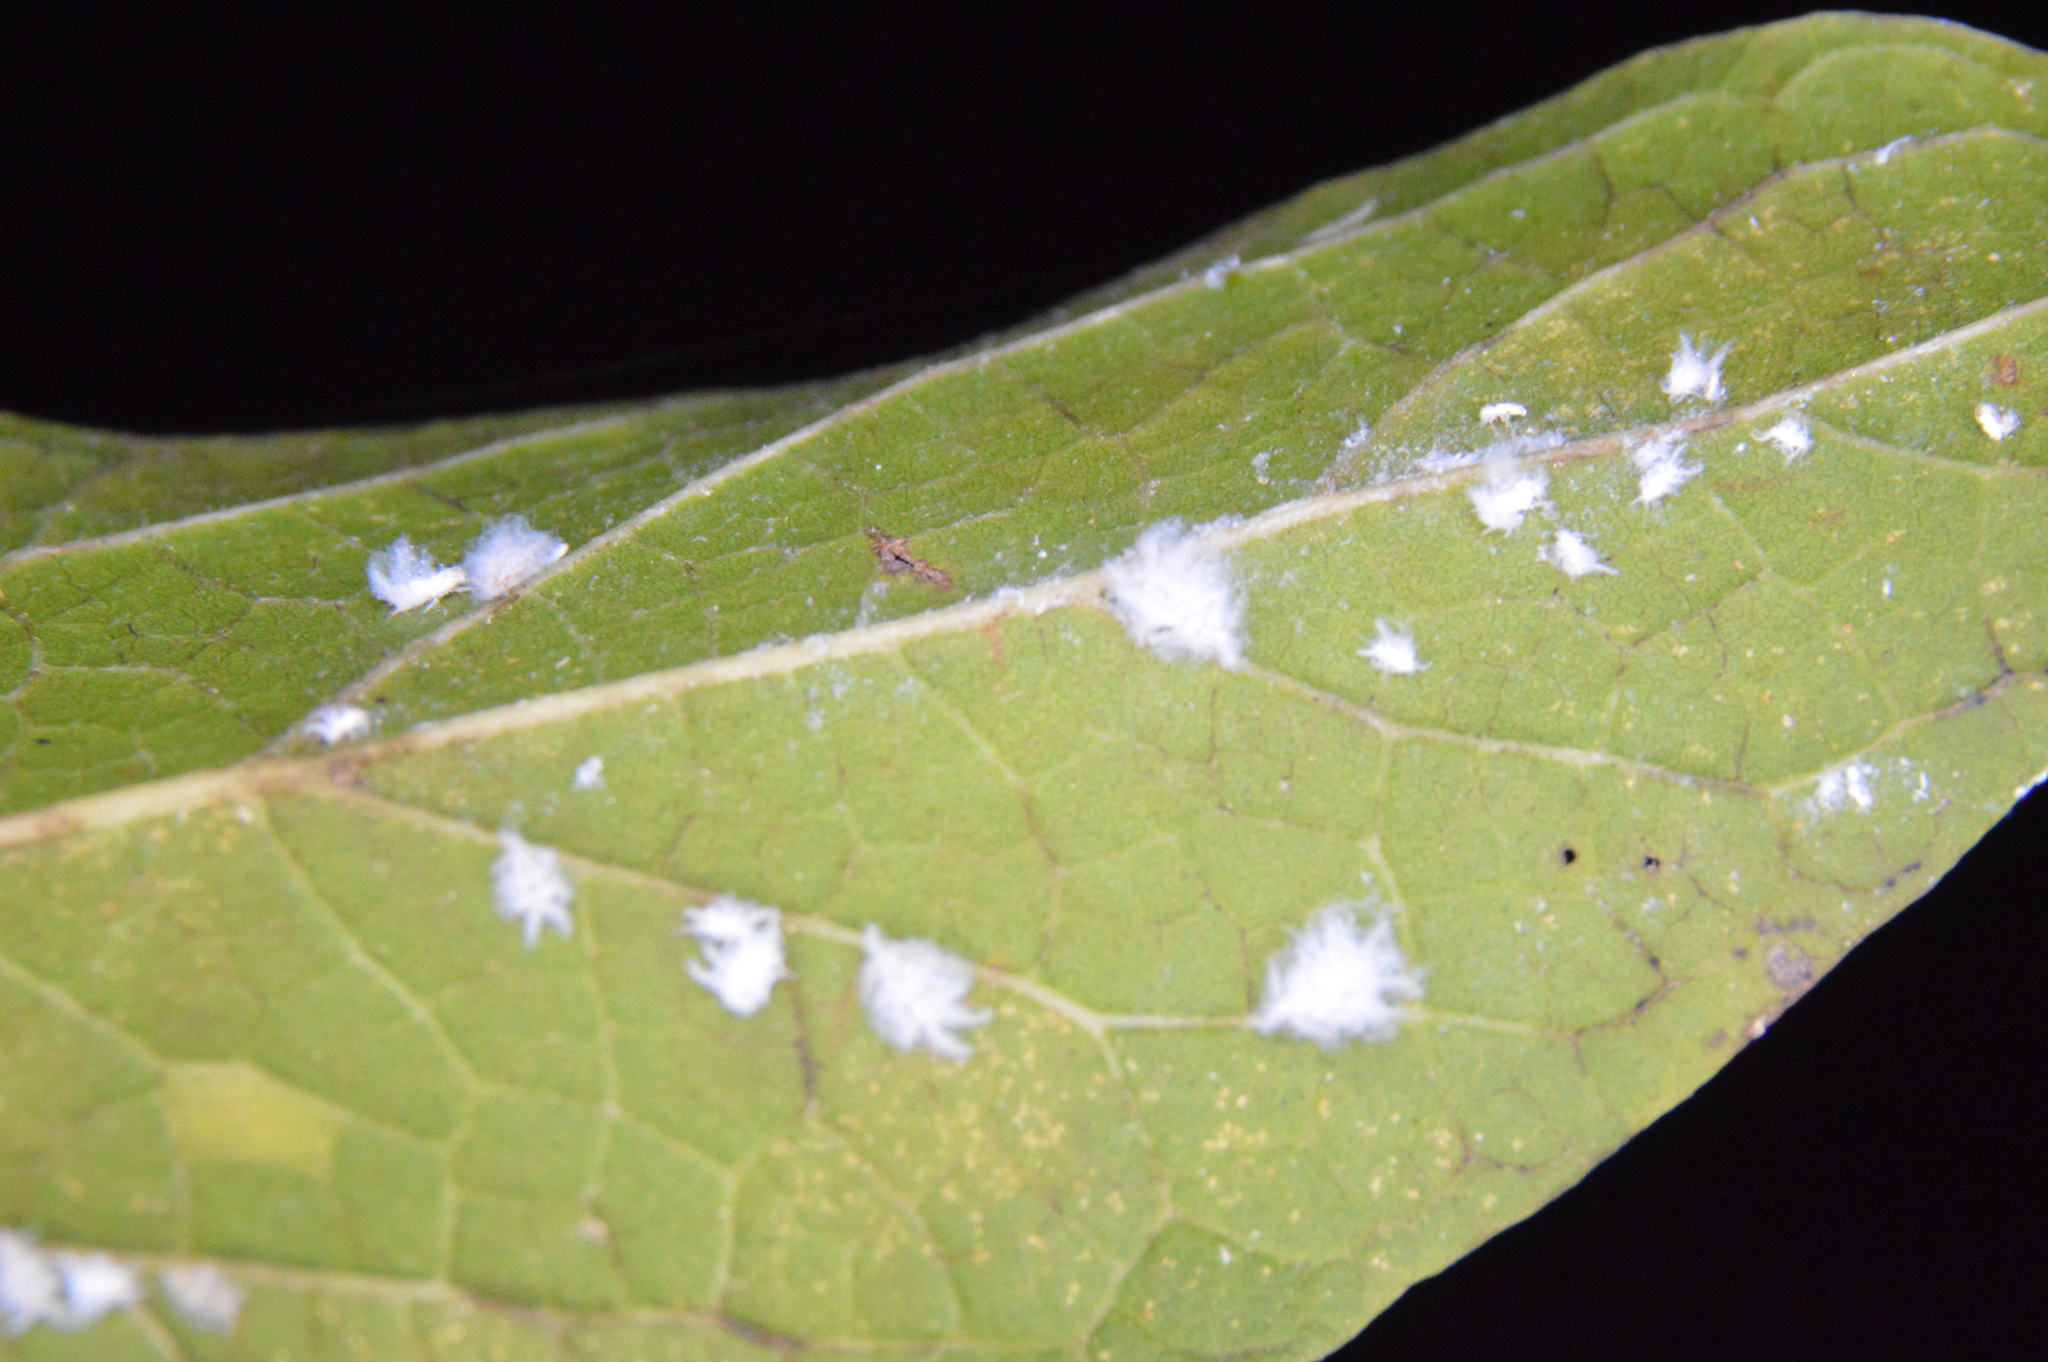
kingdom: Animalia
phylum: Arthropoda
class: Insecta
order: Hemiptera
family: Aphididae
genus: Shivaphis
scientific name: Shivaphis celti
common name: Asian wooly hackberry aphid
